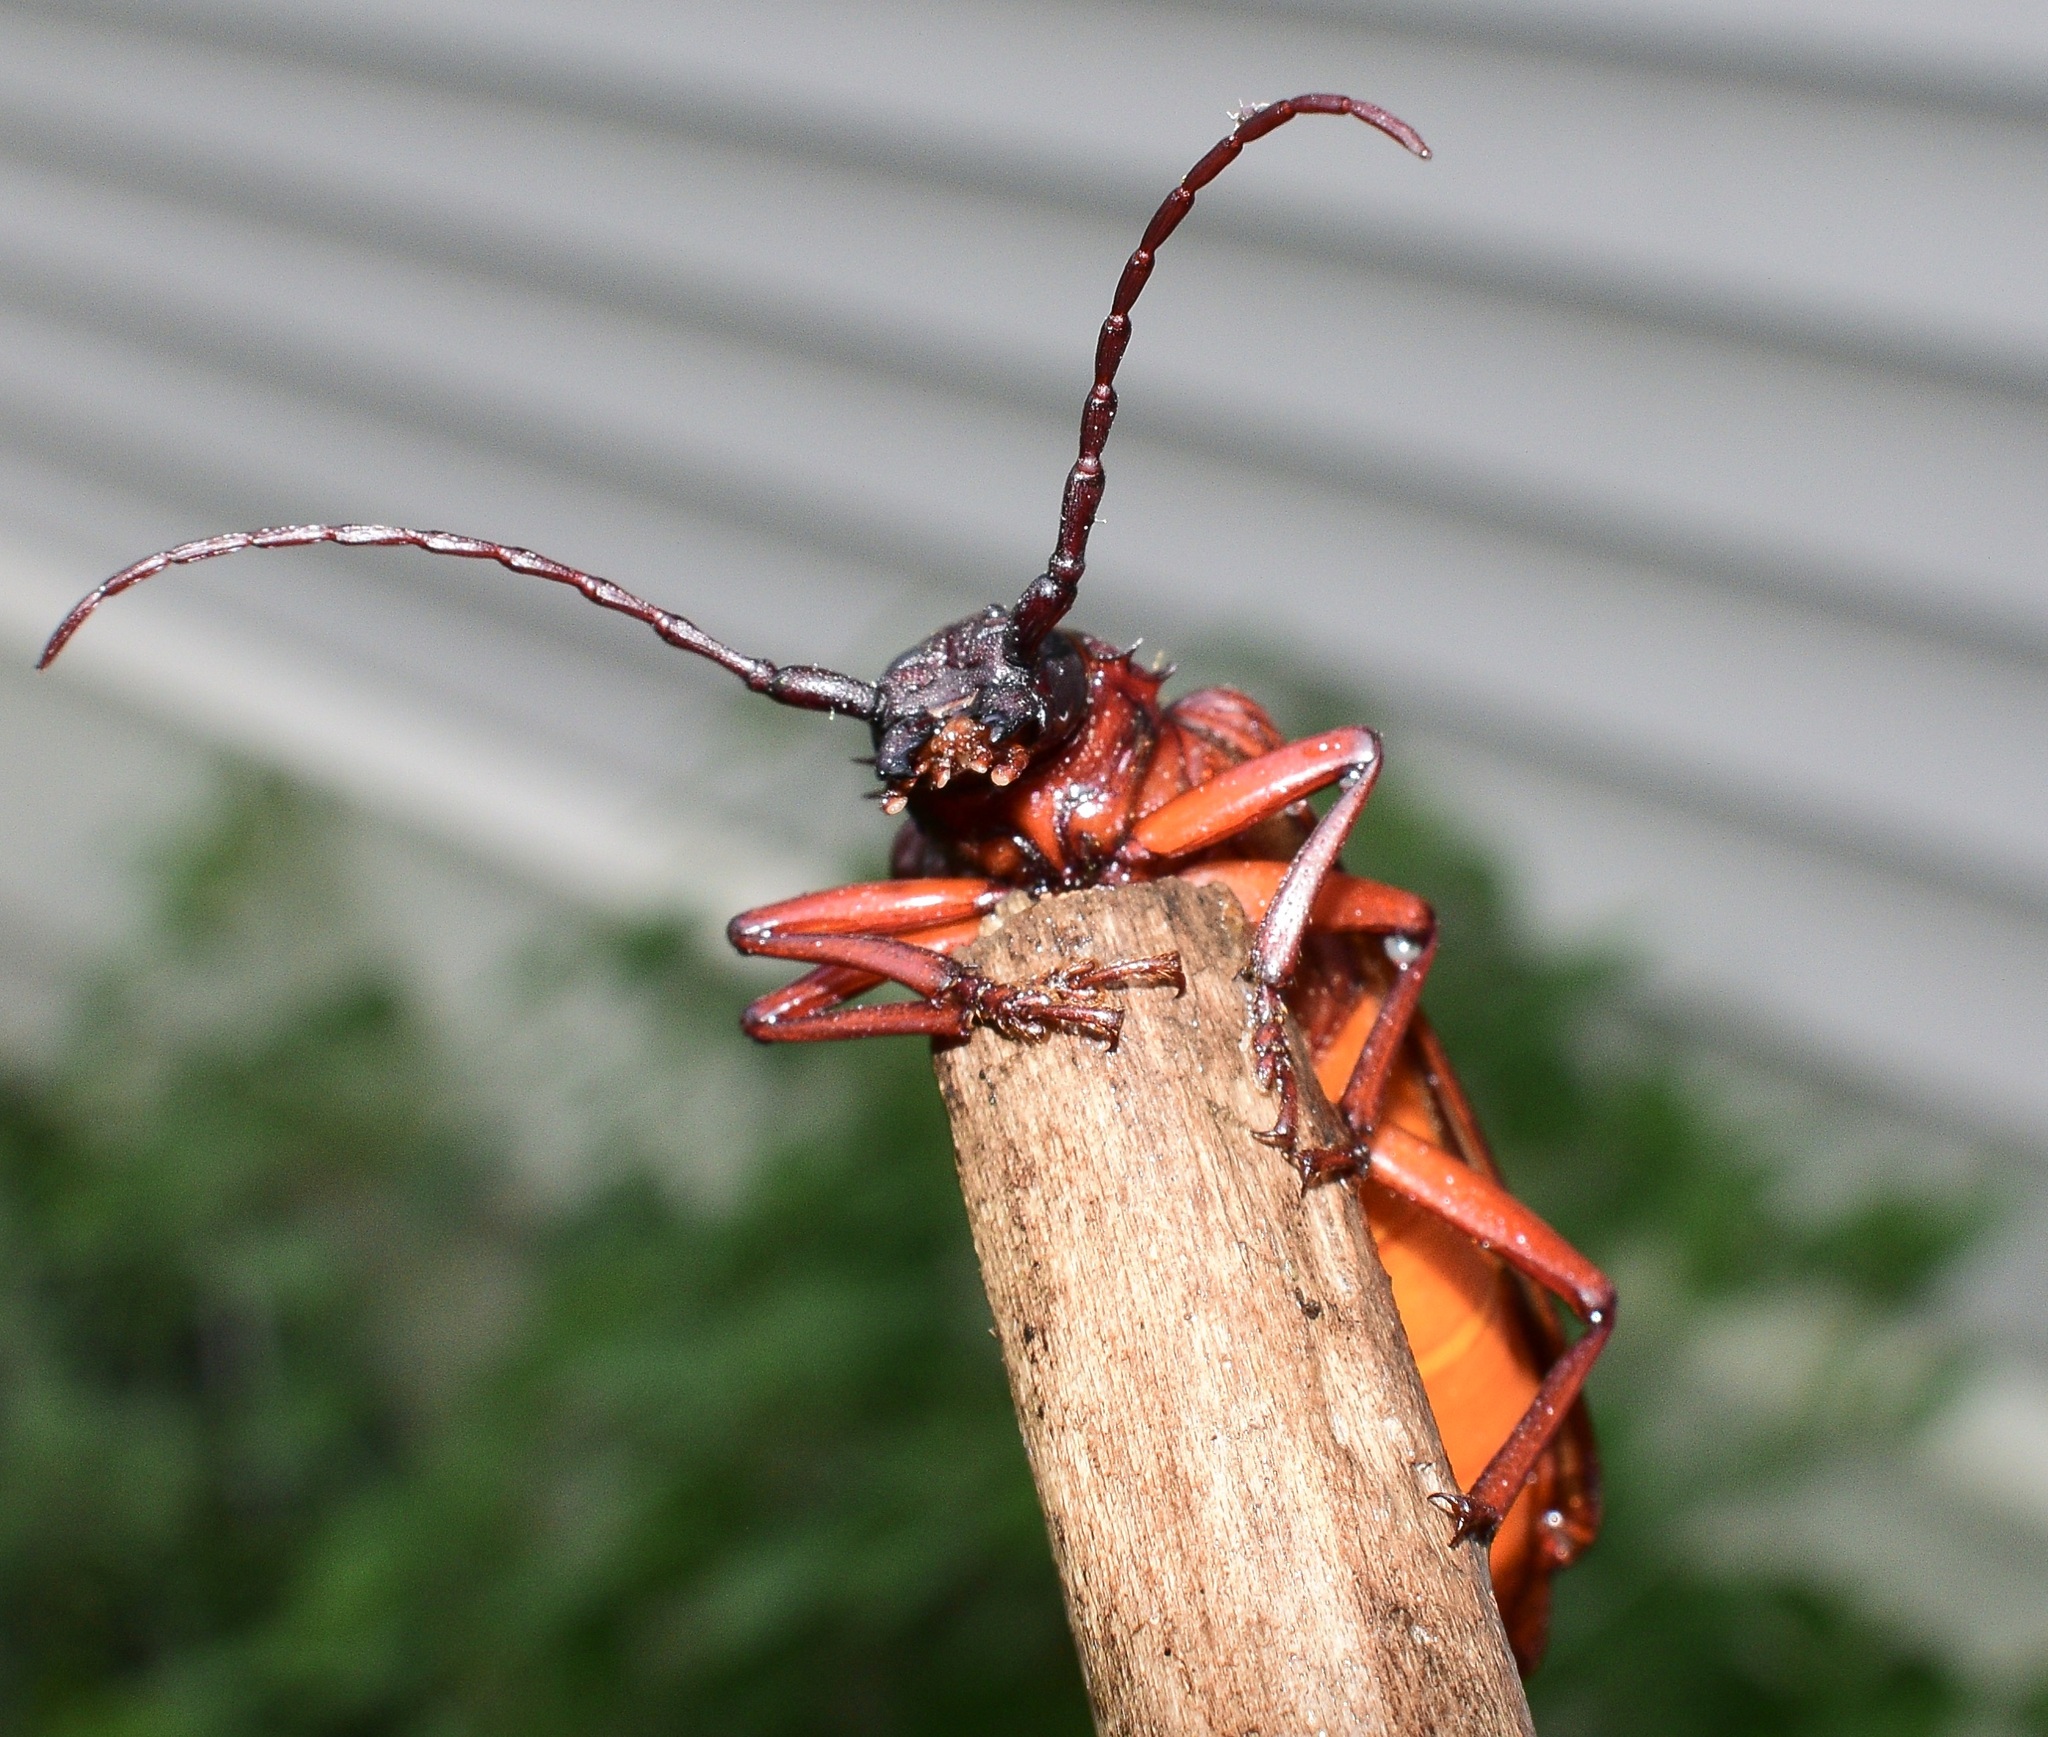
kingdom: Animalia
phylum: Arthropoda
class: Insecta
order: Coleoptera
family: Cerambycidae
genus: Orthosoma
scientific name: Orthosoma brunneum
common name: Brown prionid beetle
